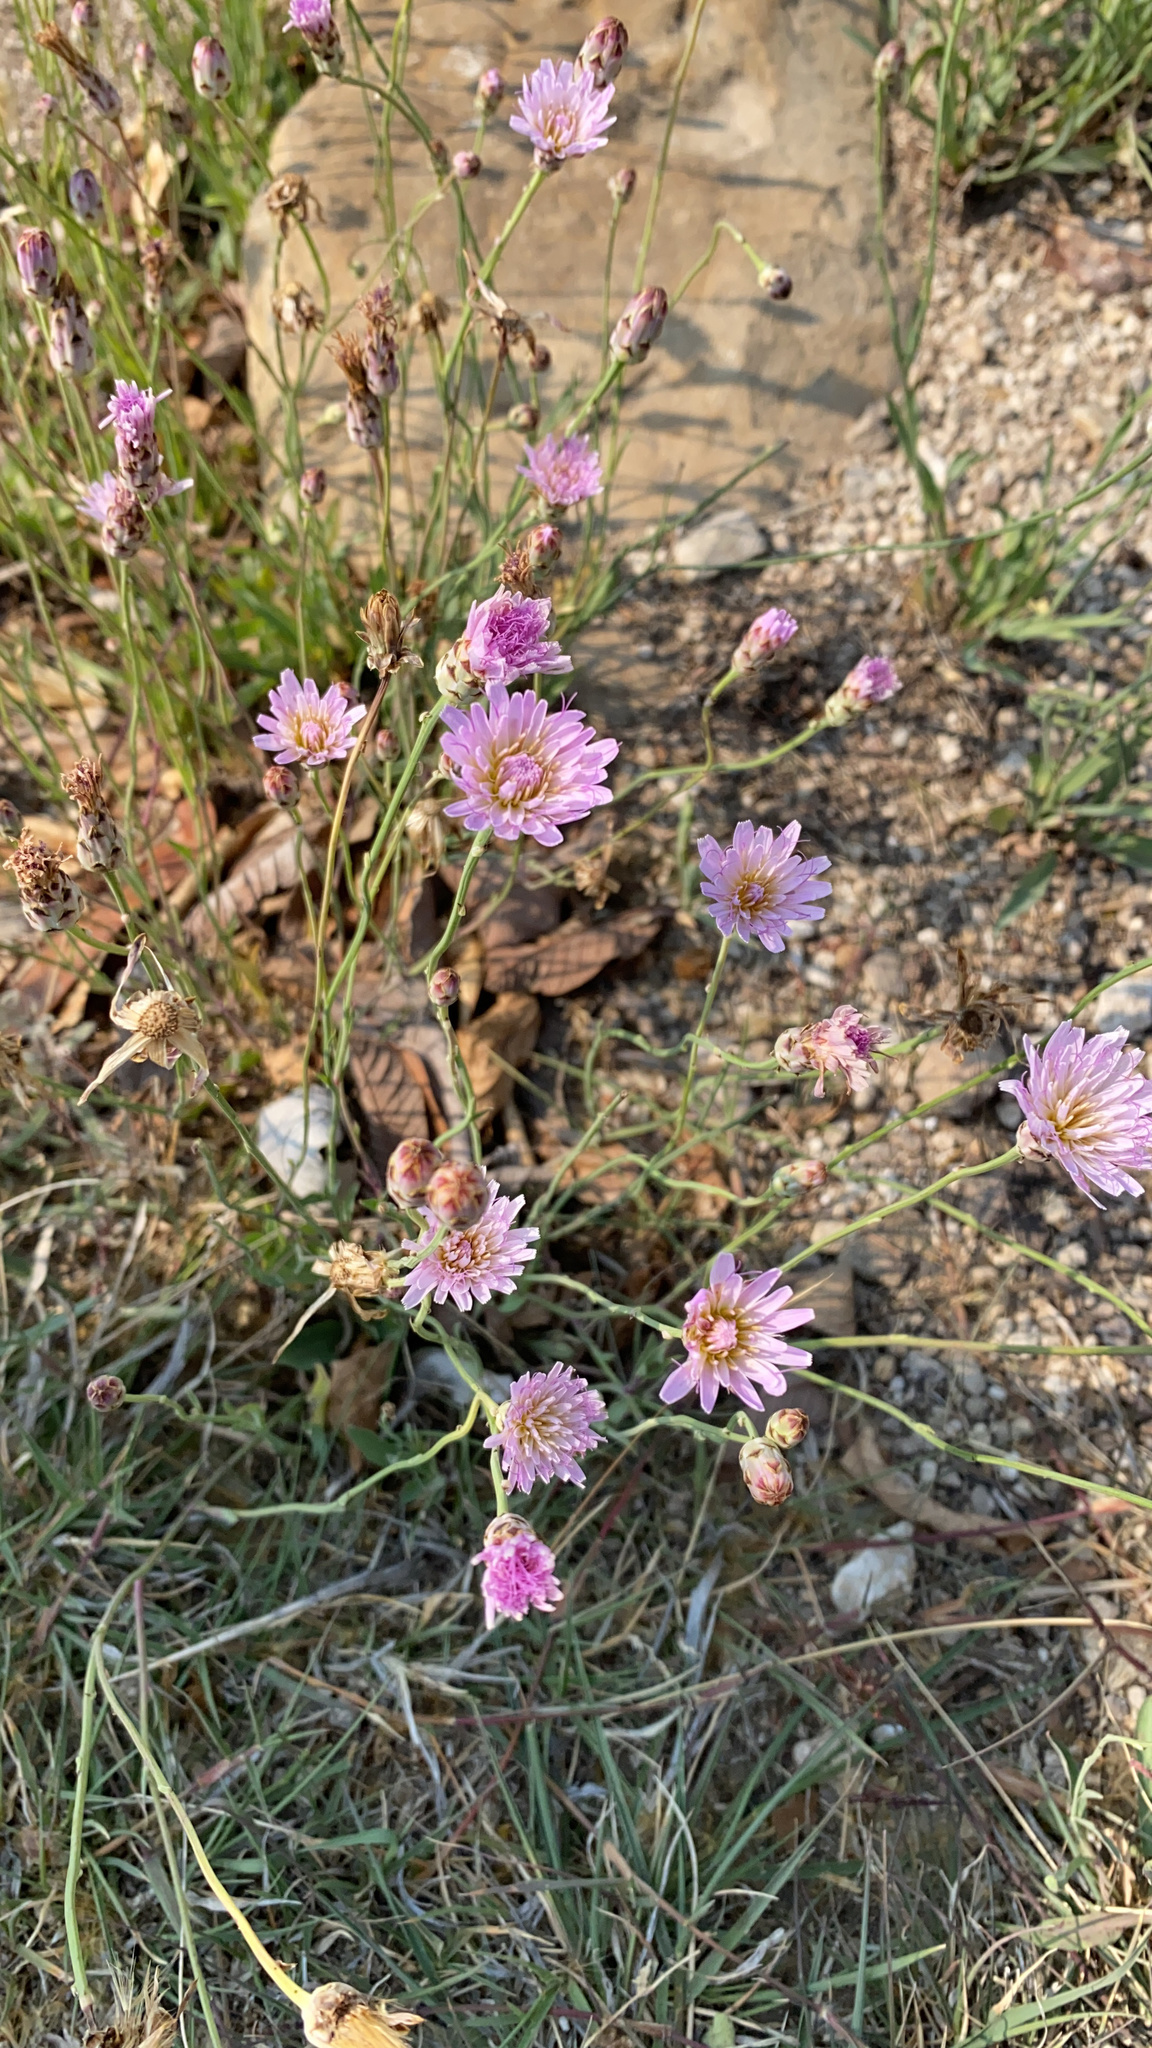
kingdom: Plantae
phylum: Tracheophyta
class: Magnoliopsida
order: Asterales
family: Asteraceae
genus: Pinaropappus
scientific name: Pinaropappus roseus
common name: Rock-lettuce
